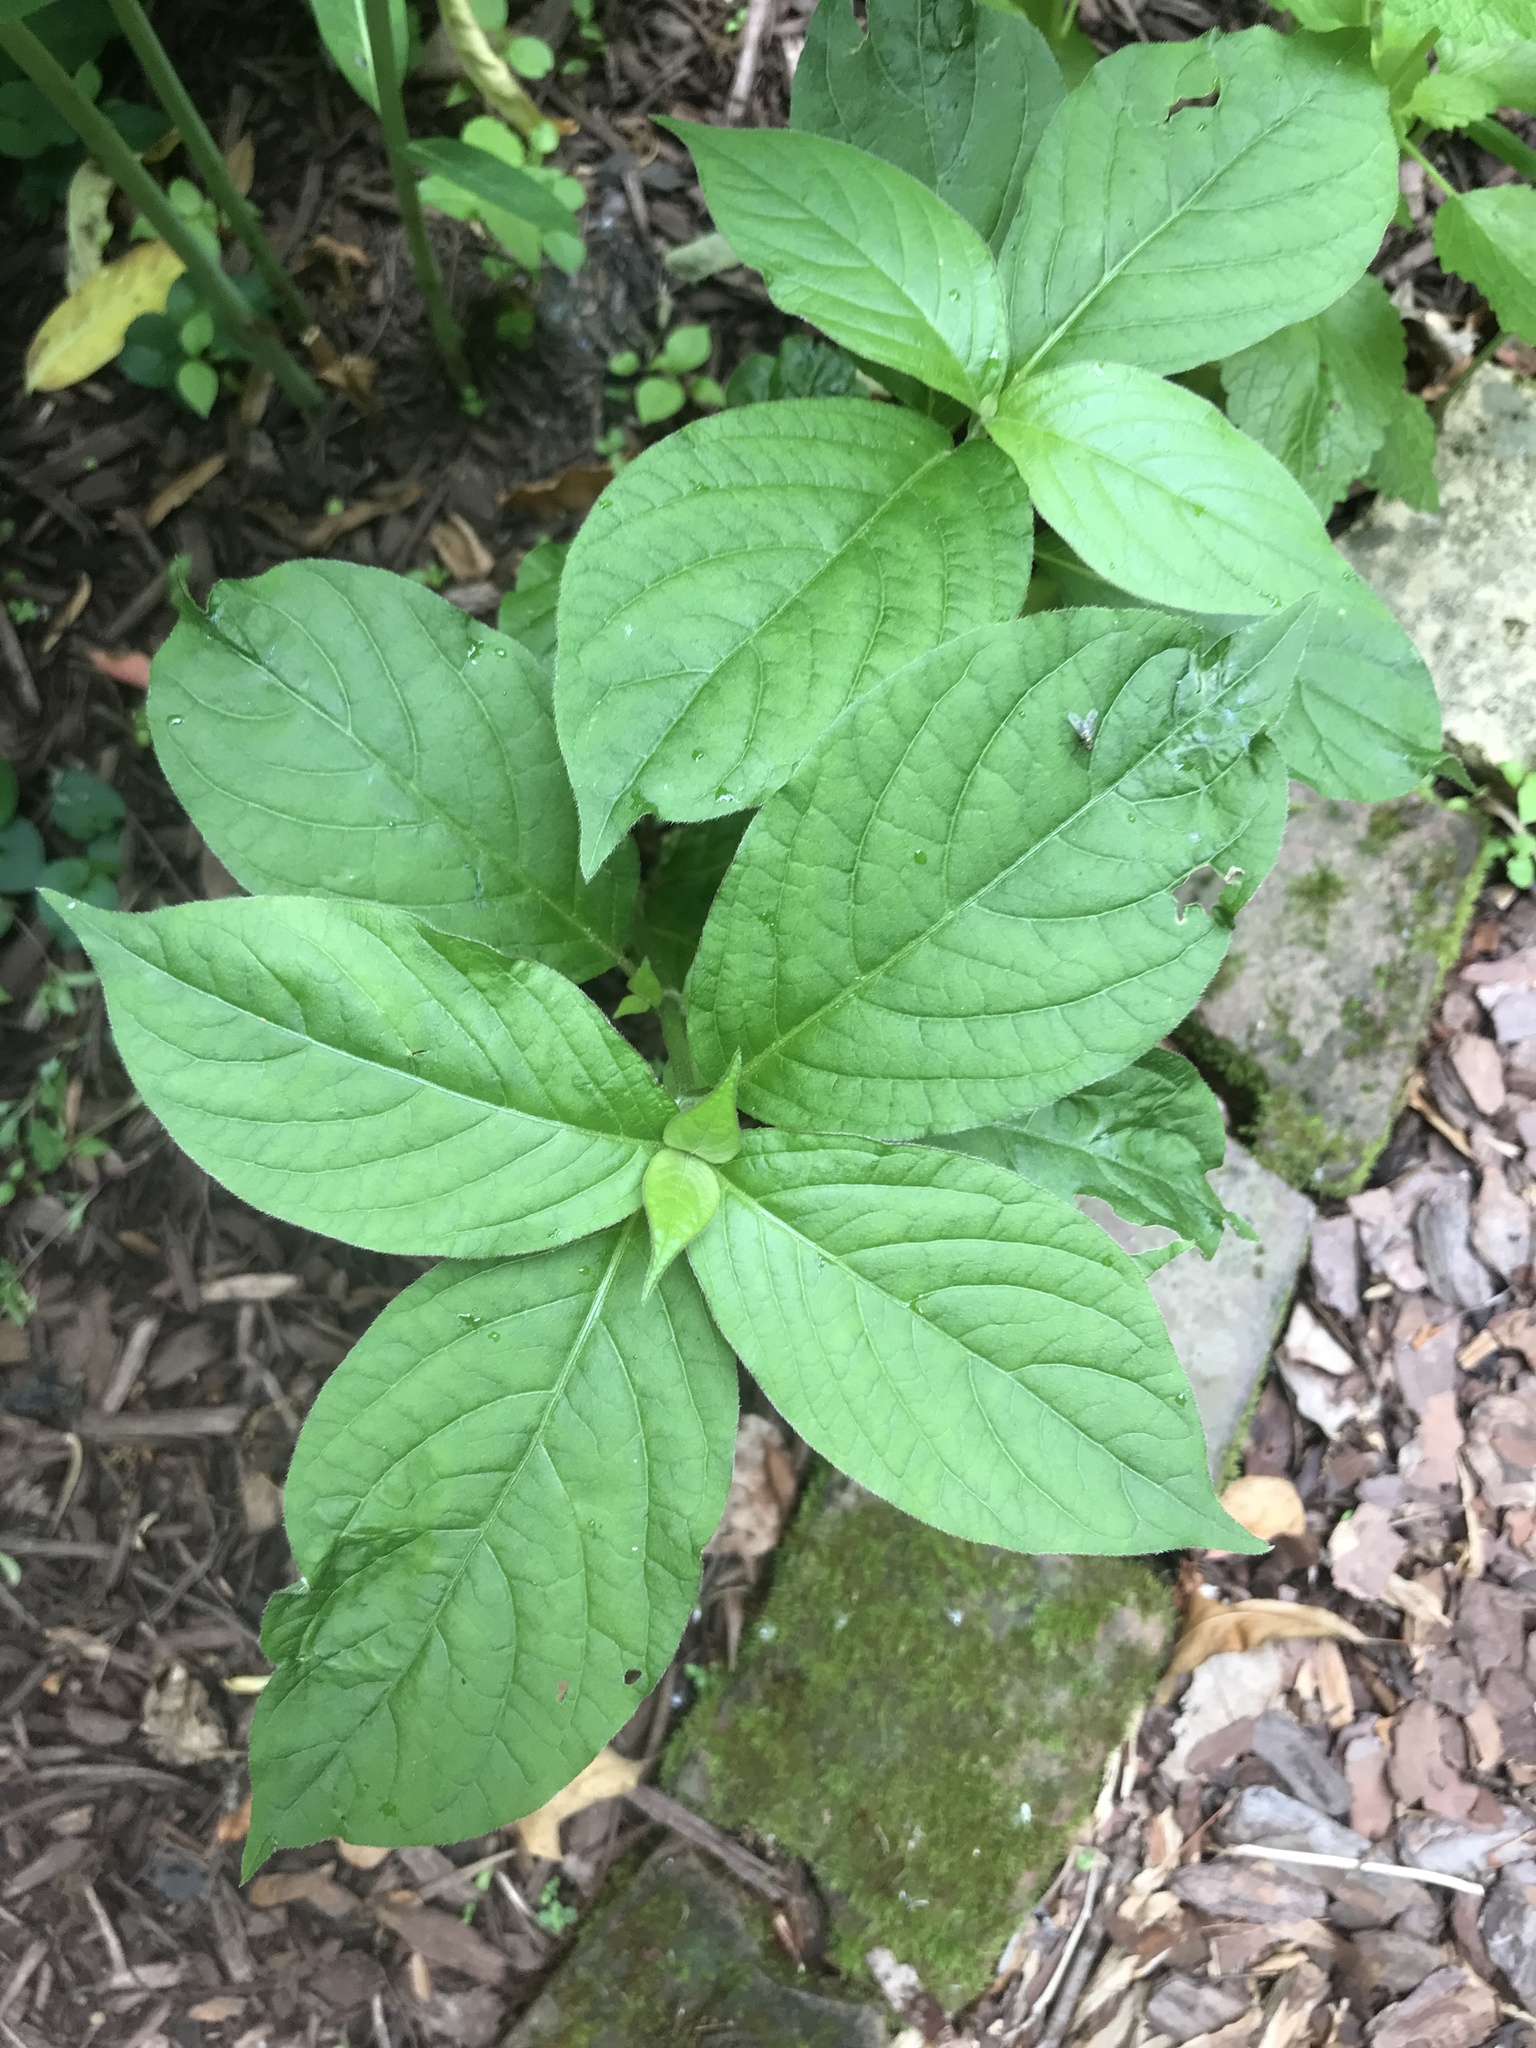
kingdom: Plantae
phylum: Tracheophyta
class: Magnoliopsida
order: Caryophyllales
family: Amaranthaceae
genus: Achyranthes
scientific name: Achyranthes bidentata
